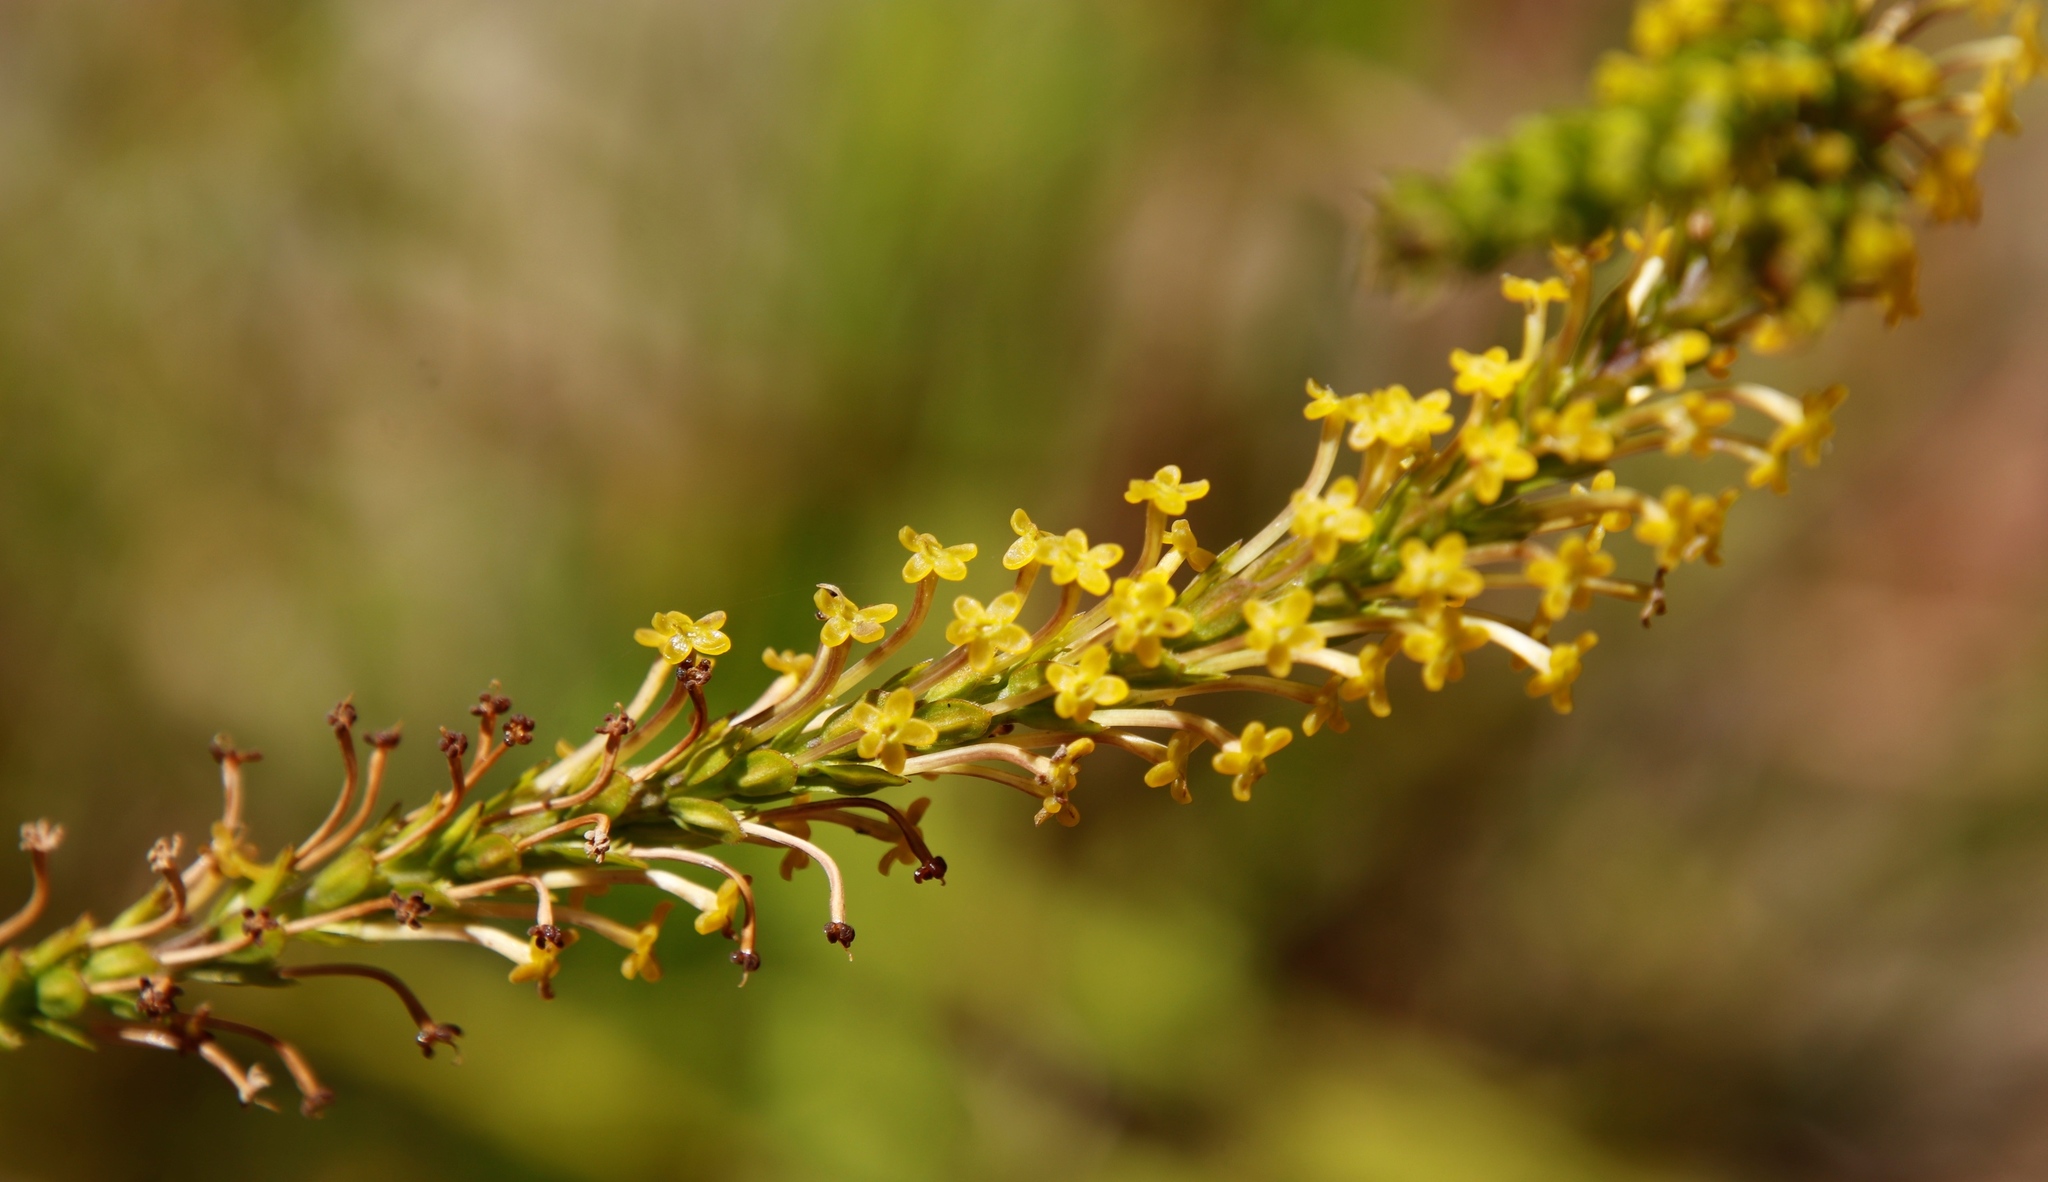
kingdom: Plantae
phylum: Tracheophyta
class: Magnoliopsida
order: Lamiales
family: Scrophulariaceae
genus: Microdon
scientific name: Microdon dubius
